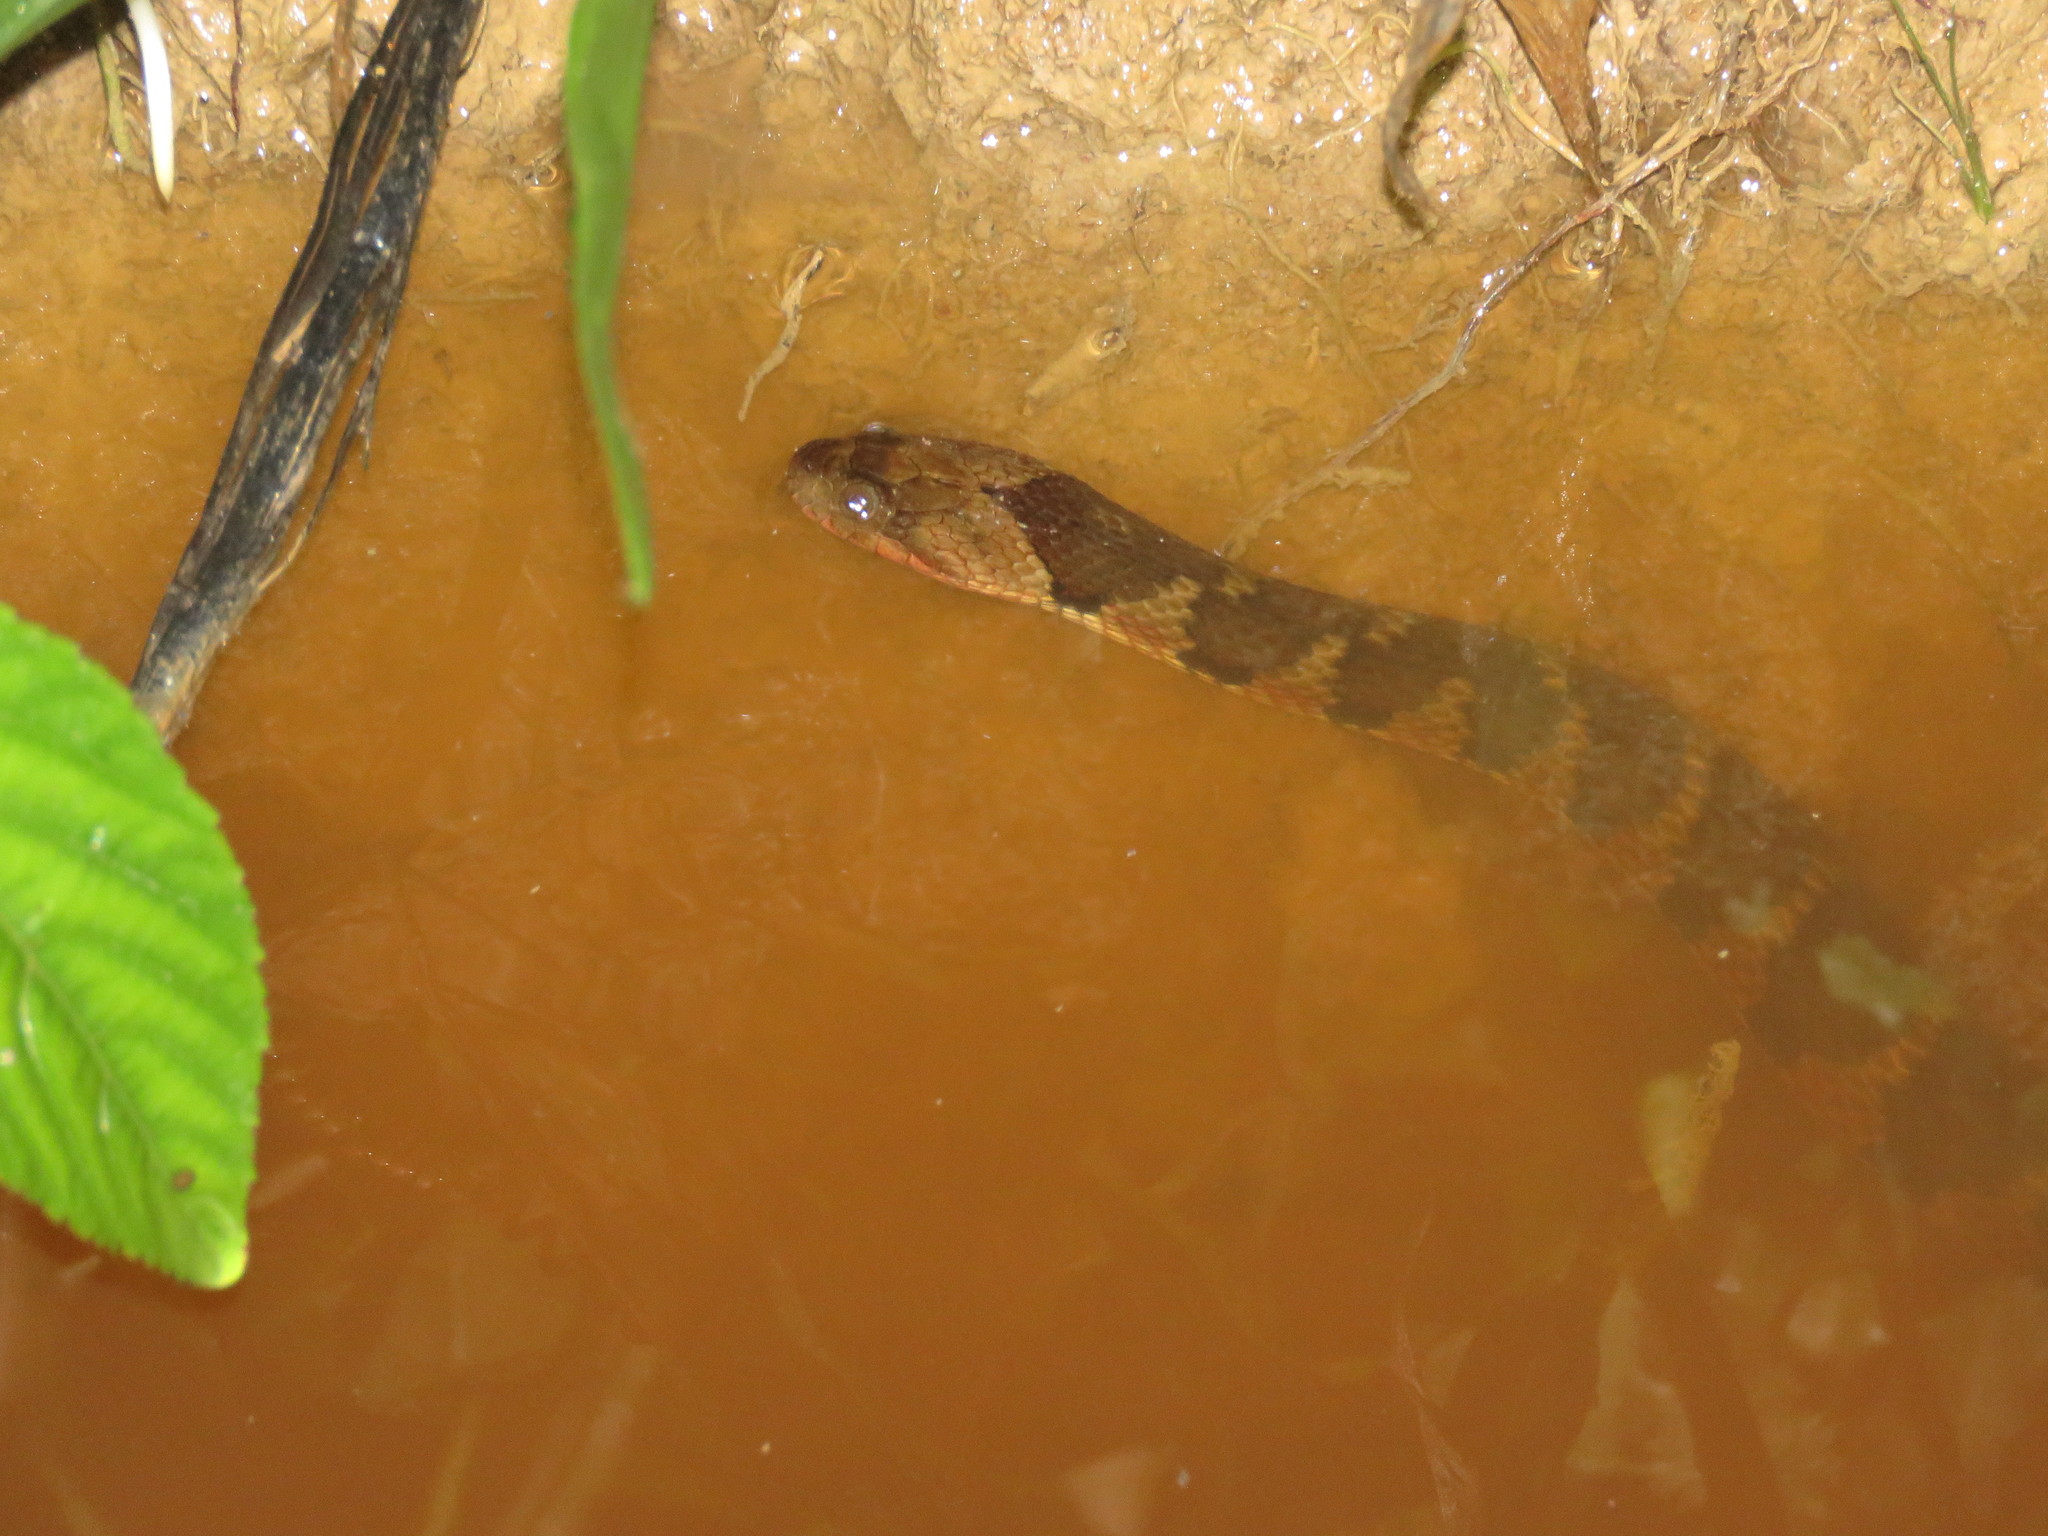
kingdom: Animalia
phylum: Chordata
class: Squamata
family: Colubridae
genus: Helicops
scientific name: Helicops angulatus
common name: Mountain keelback
